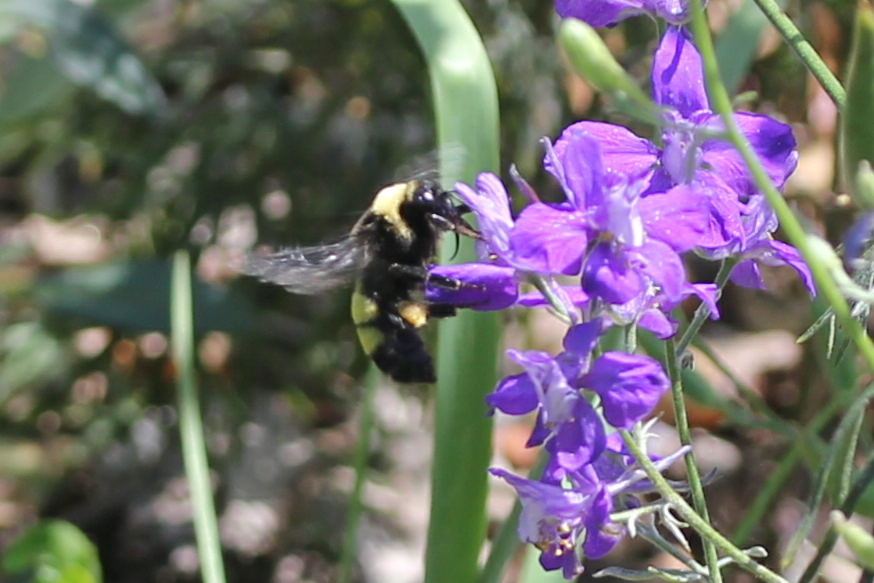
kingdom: Animalia
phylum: Arthropoda
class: Insecta
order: Hymenoptera
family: Apidae
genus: Bombus
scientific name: Bombus auricomus
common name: Black and gold bumble bee
